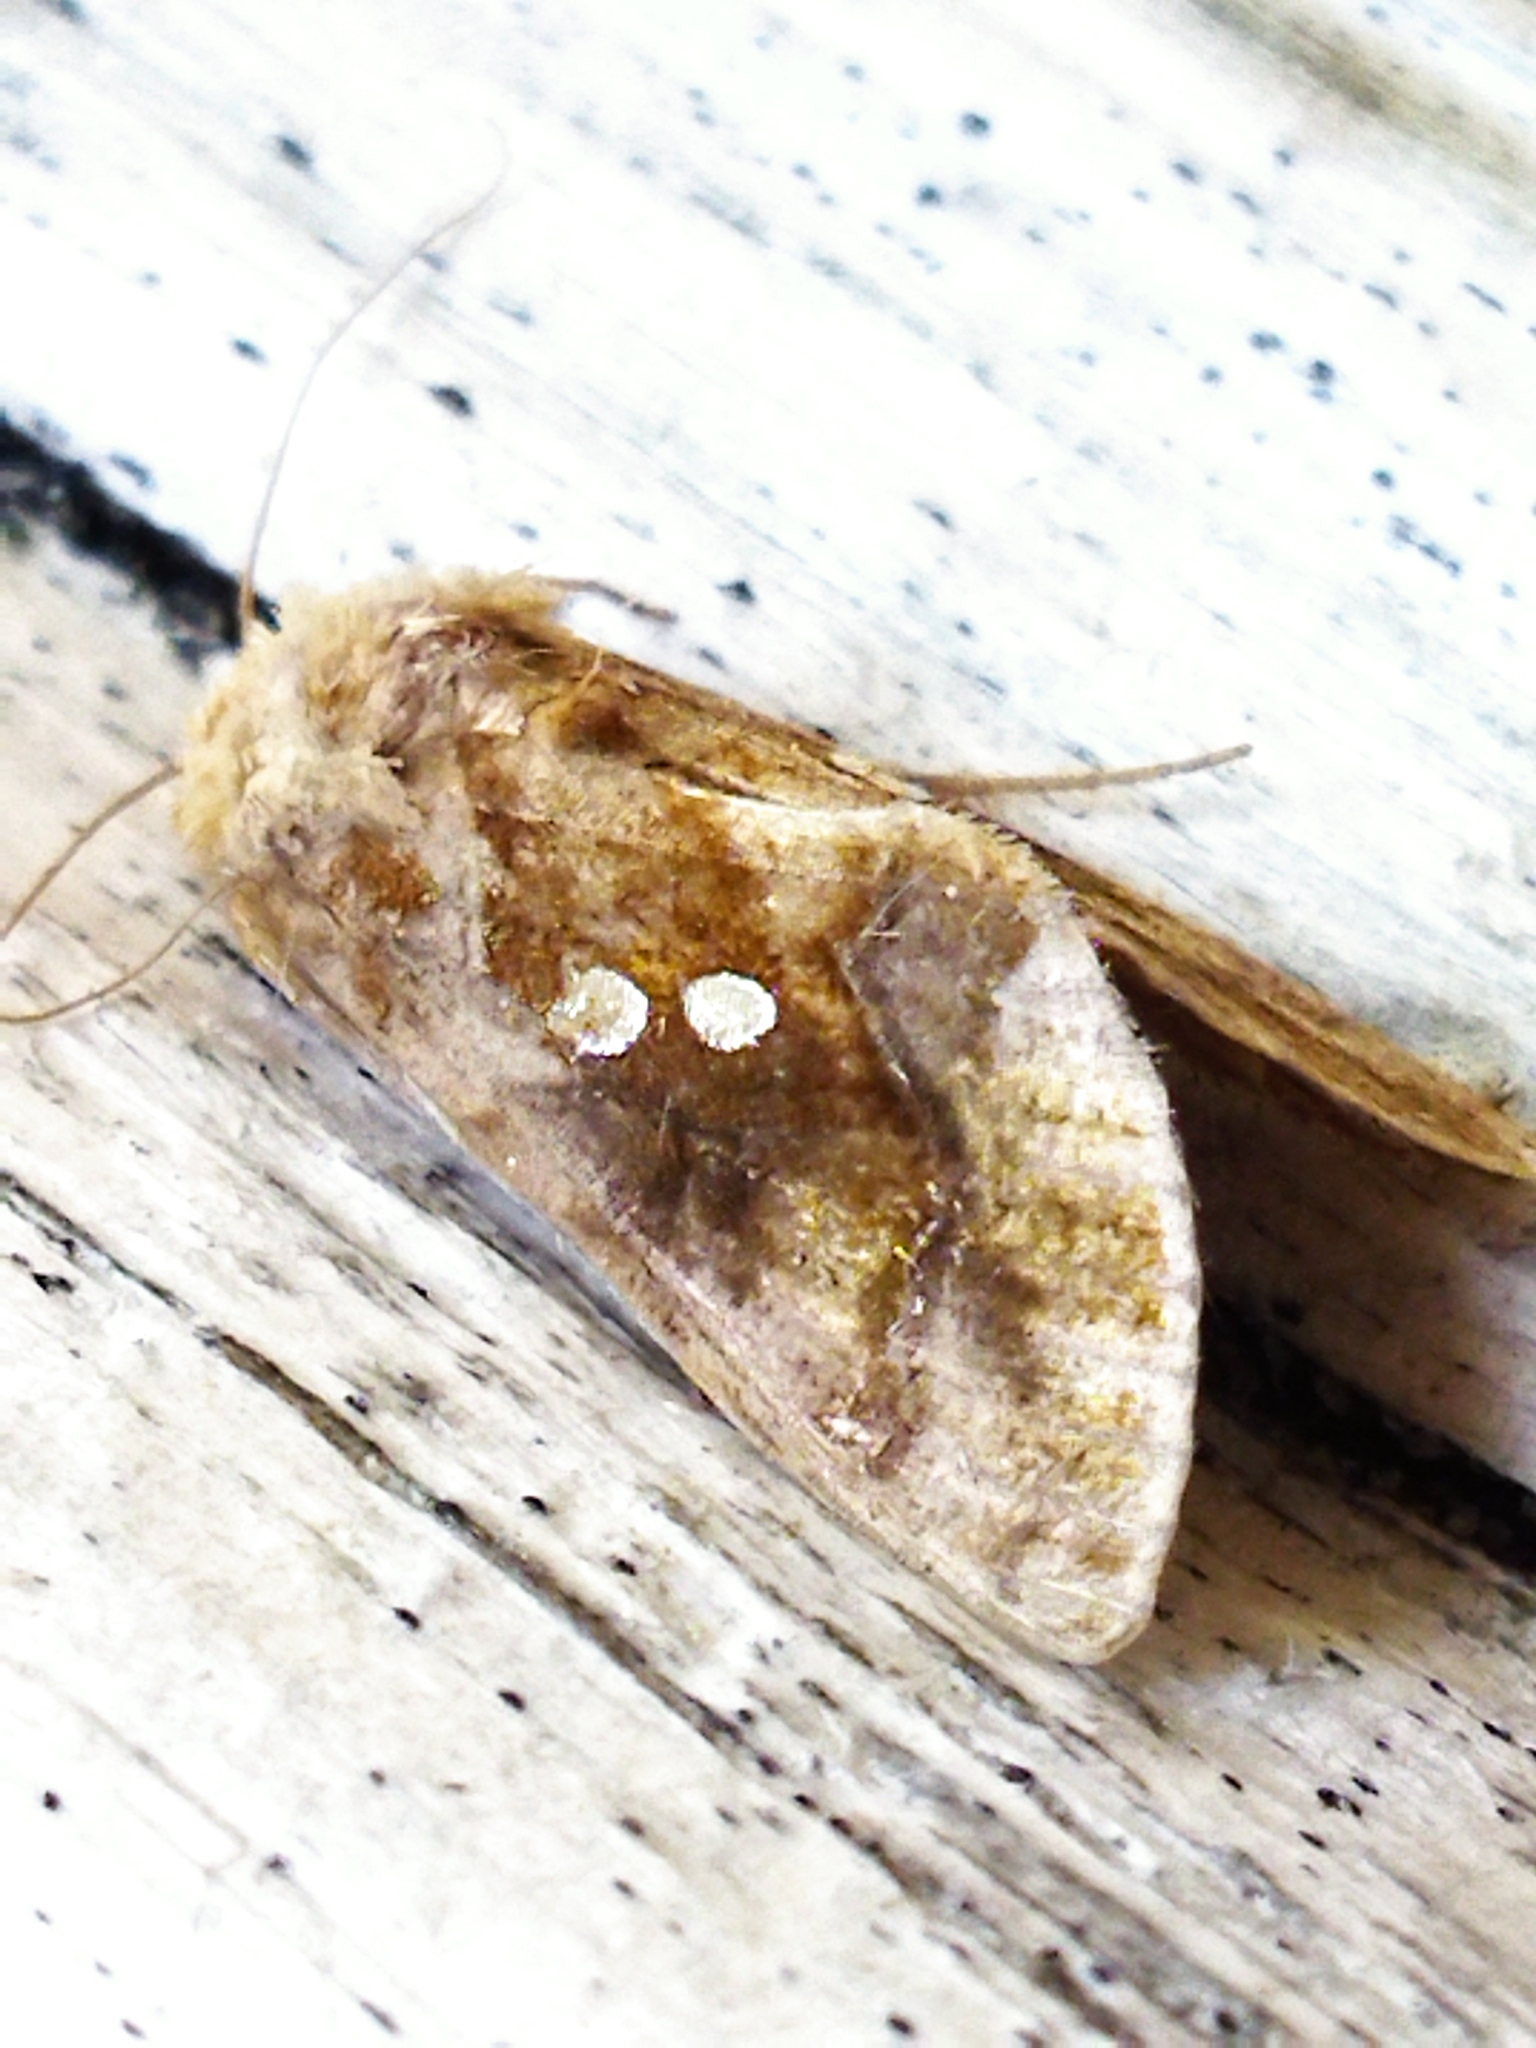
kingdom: Animalia
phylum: Arthropoda
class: Insecta
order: Lepidoptera
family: Noctuidae
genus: Chrysodeixis
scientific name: Chrysodeixis chalcites
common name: Golden twin-spot
